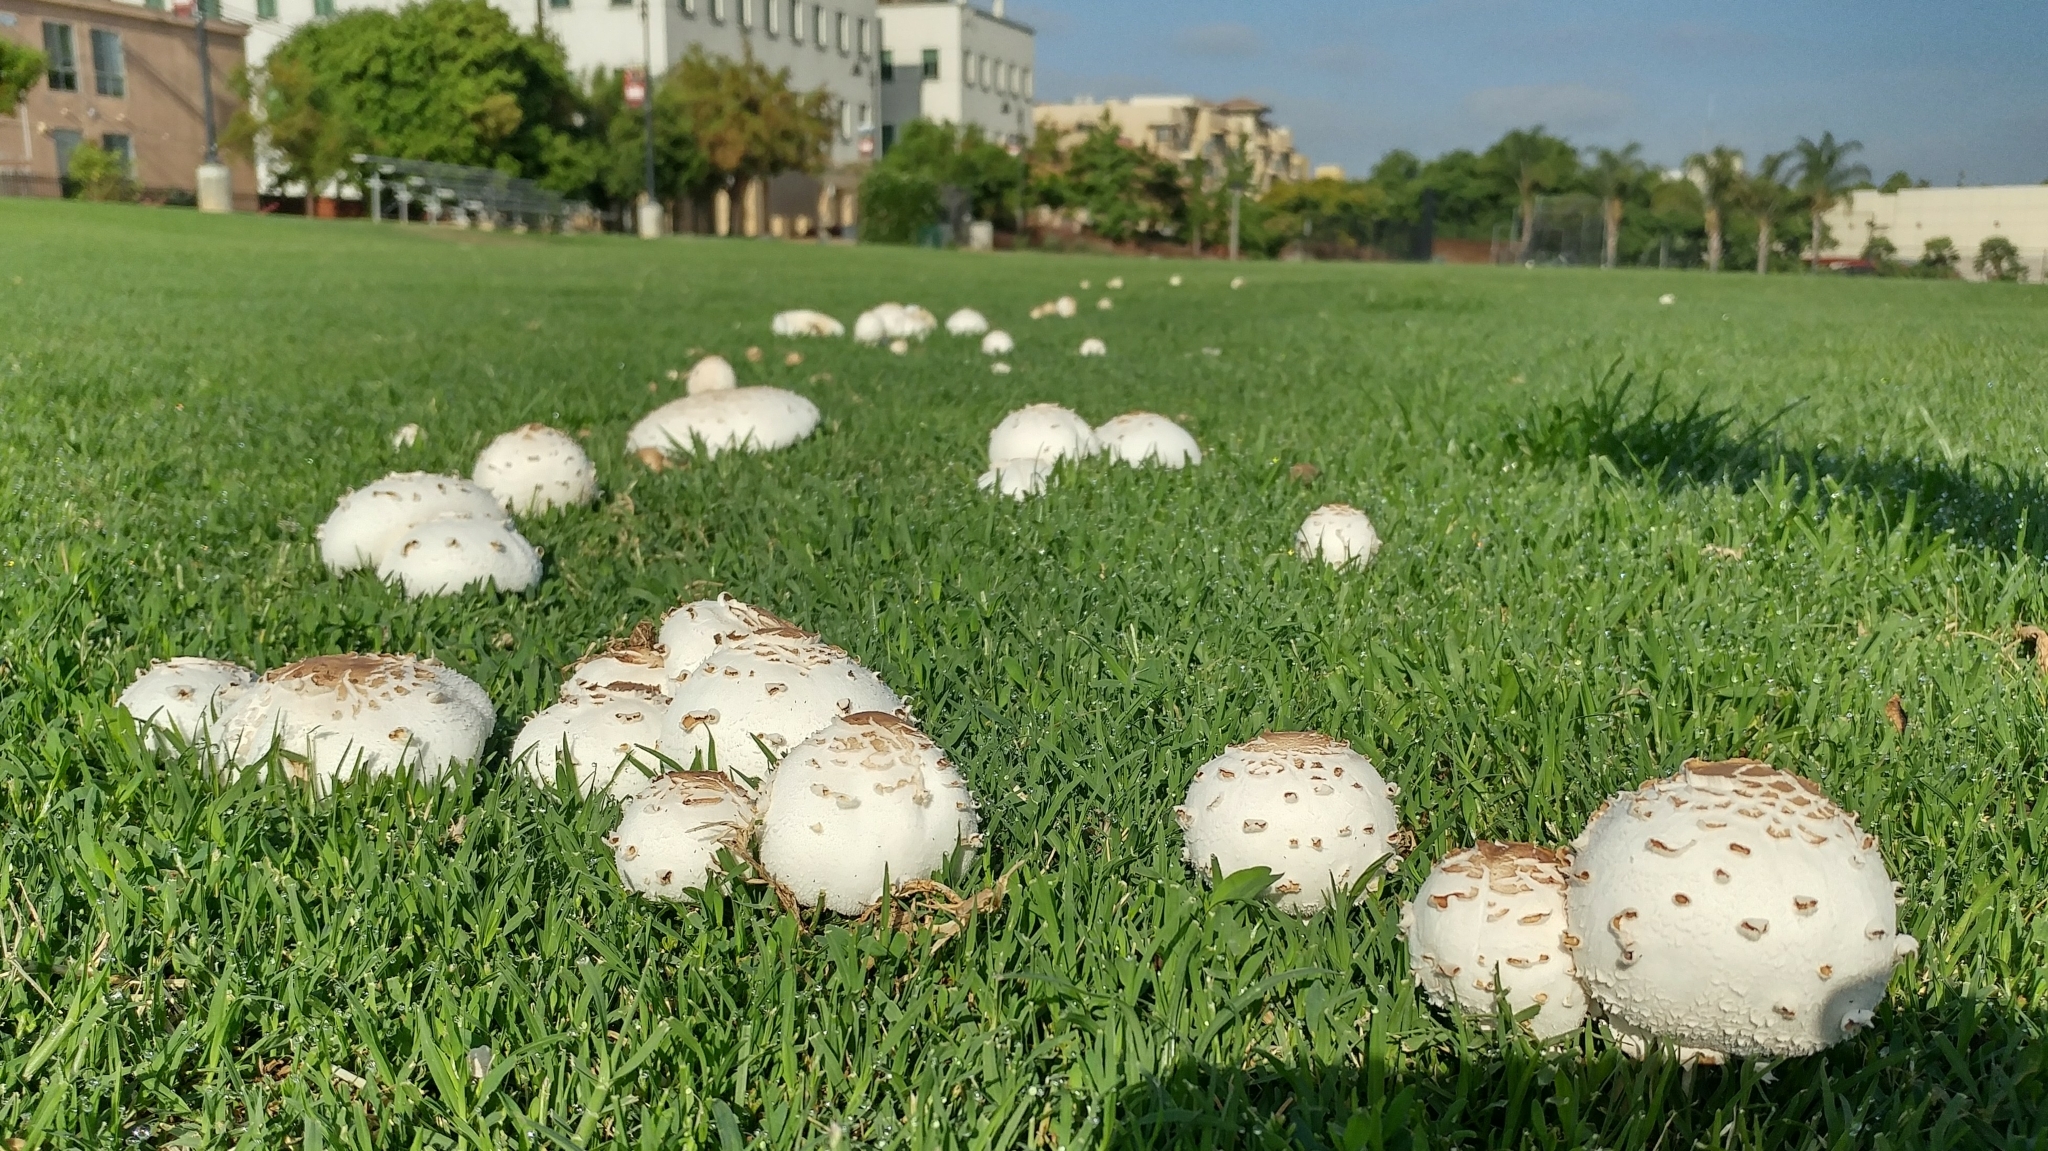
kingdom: Fungi
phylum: Basidiomycota
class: Agaricomycetes
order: Agaricales
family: Agaricaceae
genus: Chlorophyllum
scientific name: Chlorophyllum molybdites
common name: False parasol
